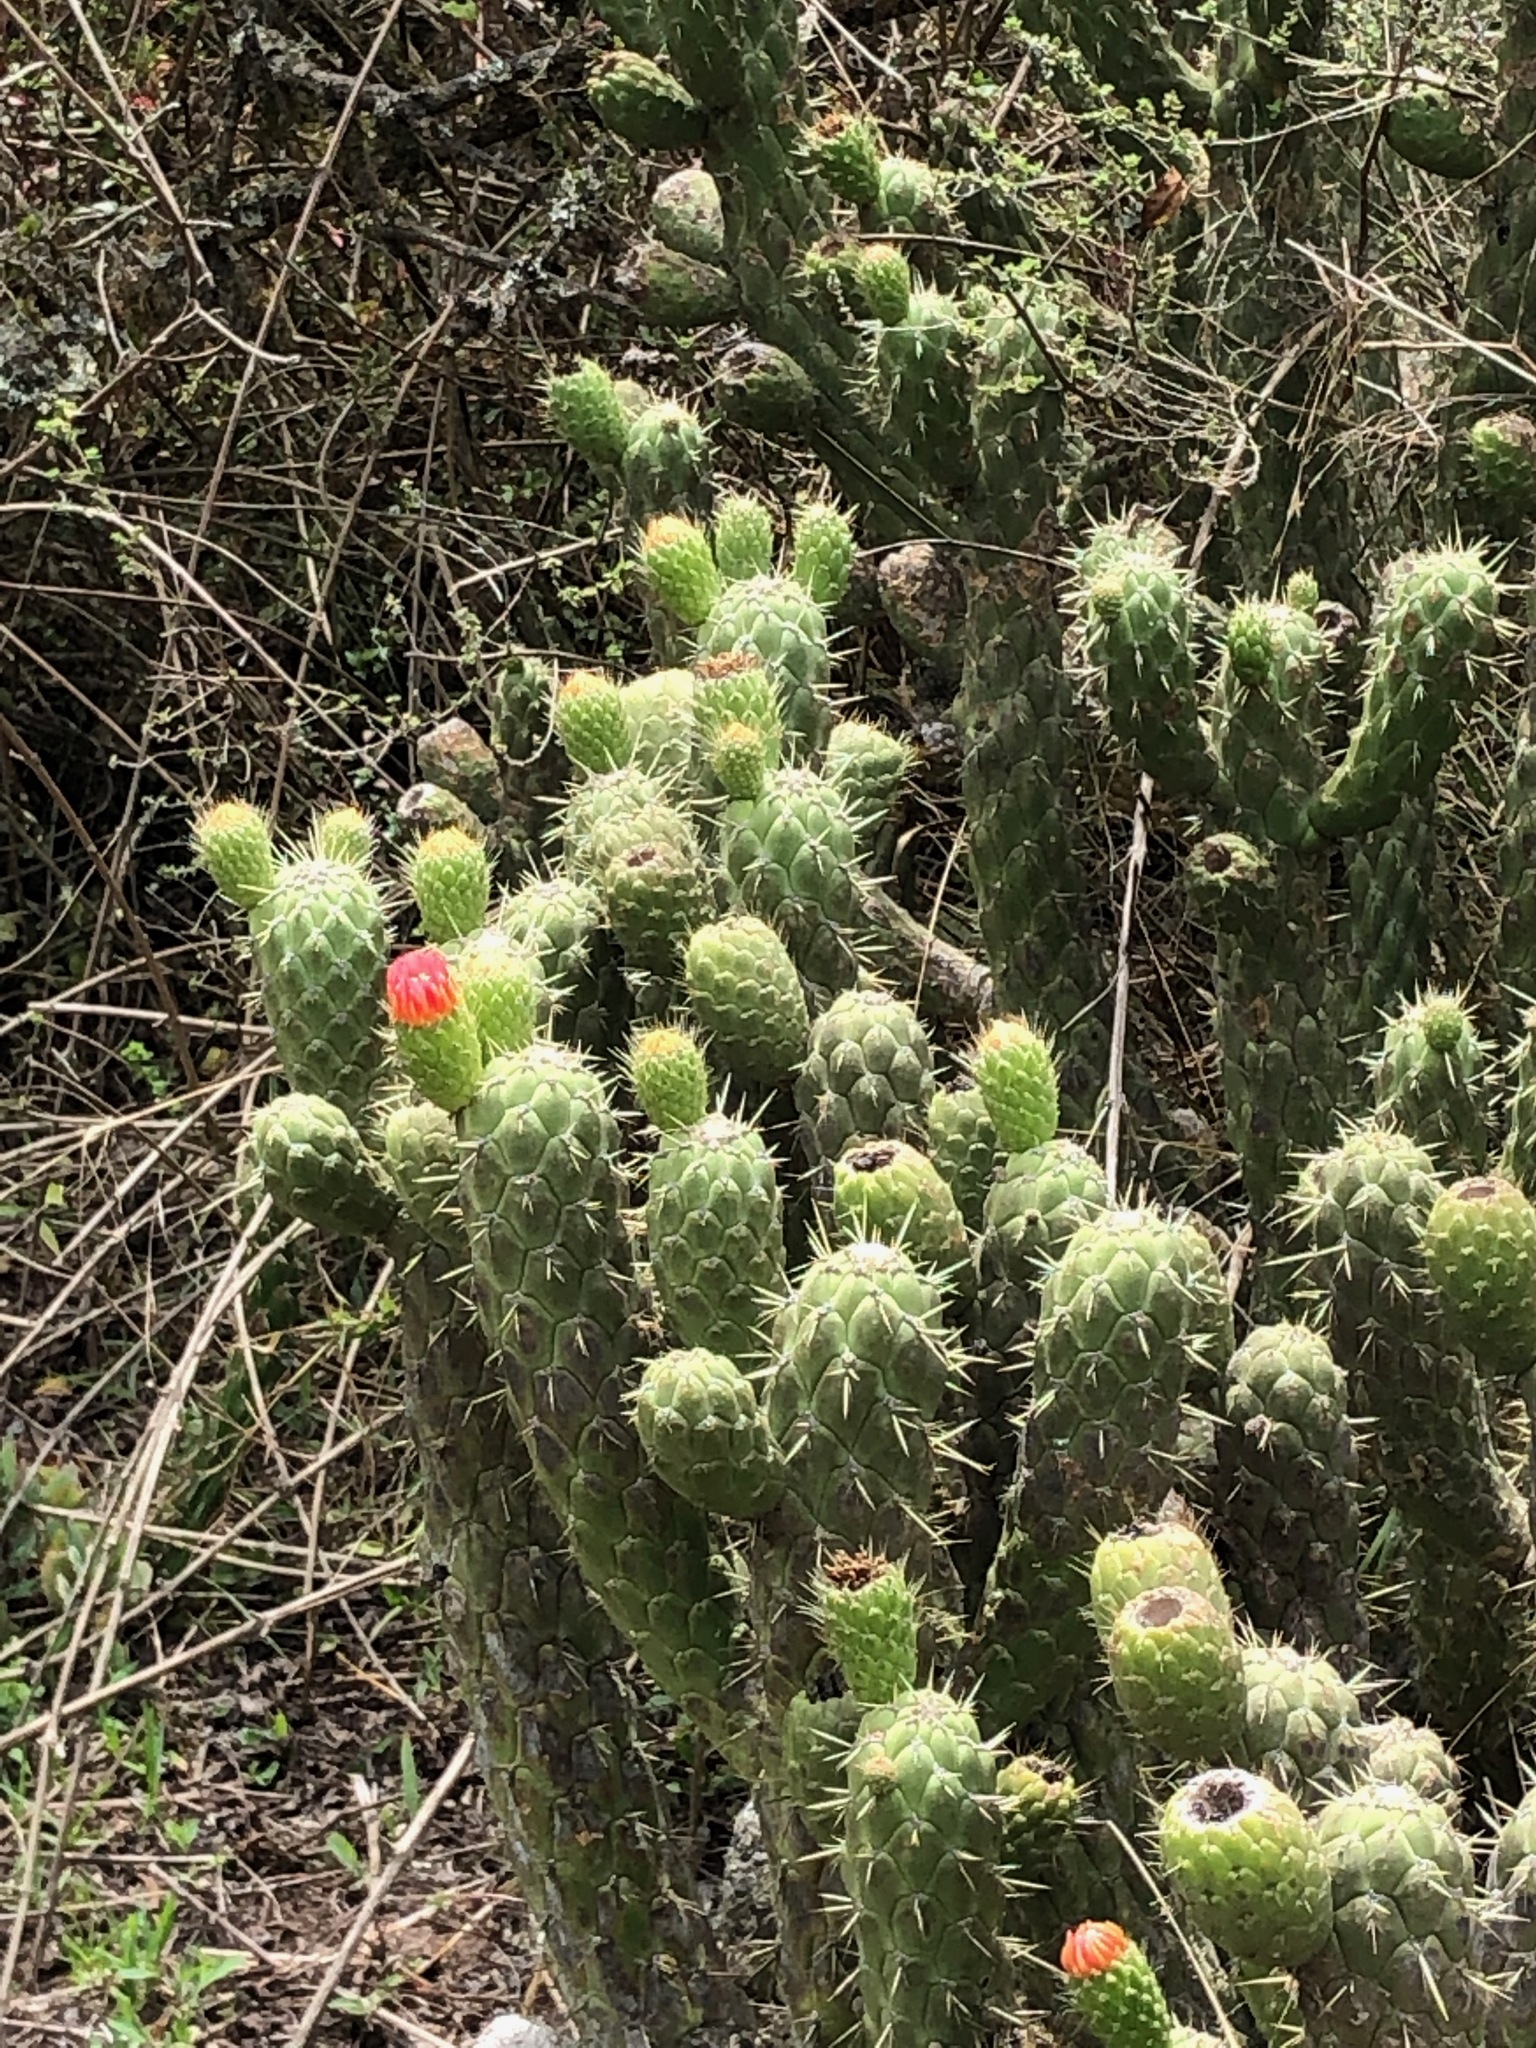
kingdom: Plantae
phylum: Tracheophyta
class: Magnoliopsida
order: Caryophyllales
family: Cactaceae
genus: Austrocylindropuntia
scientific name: Austrocylindropuntia cylindrica
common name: Cane cactus
